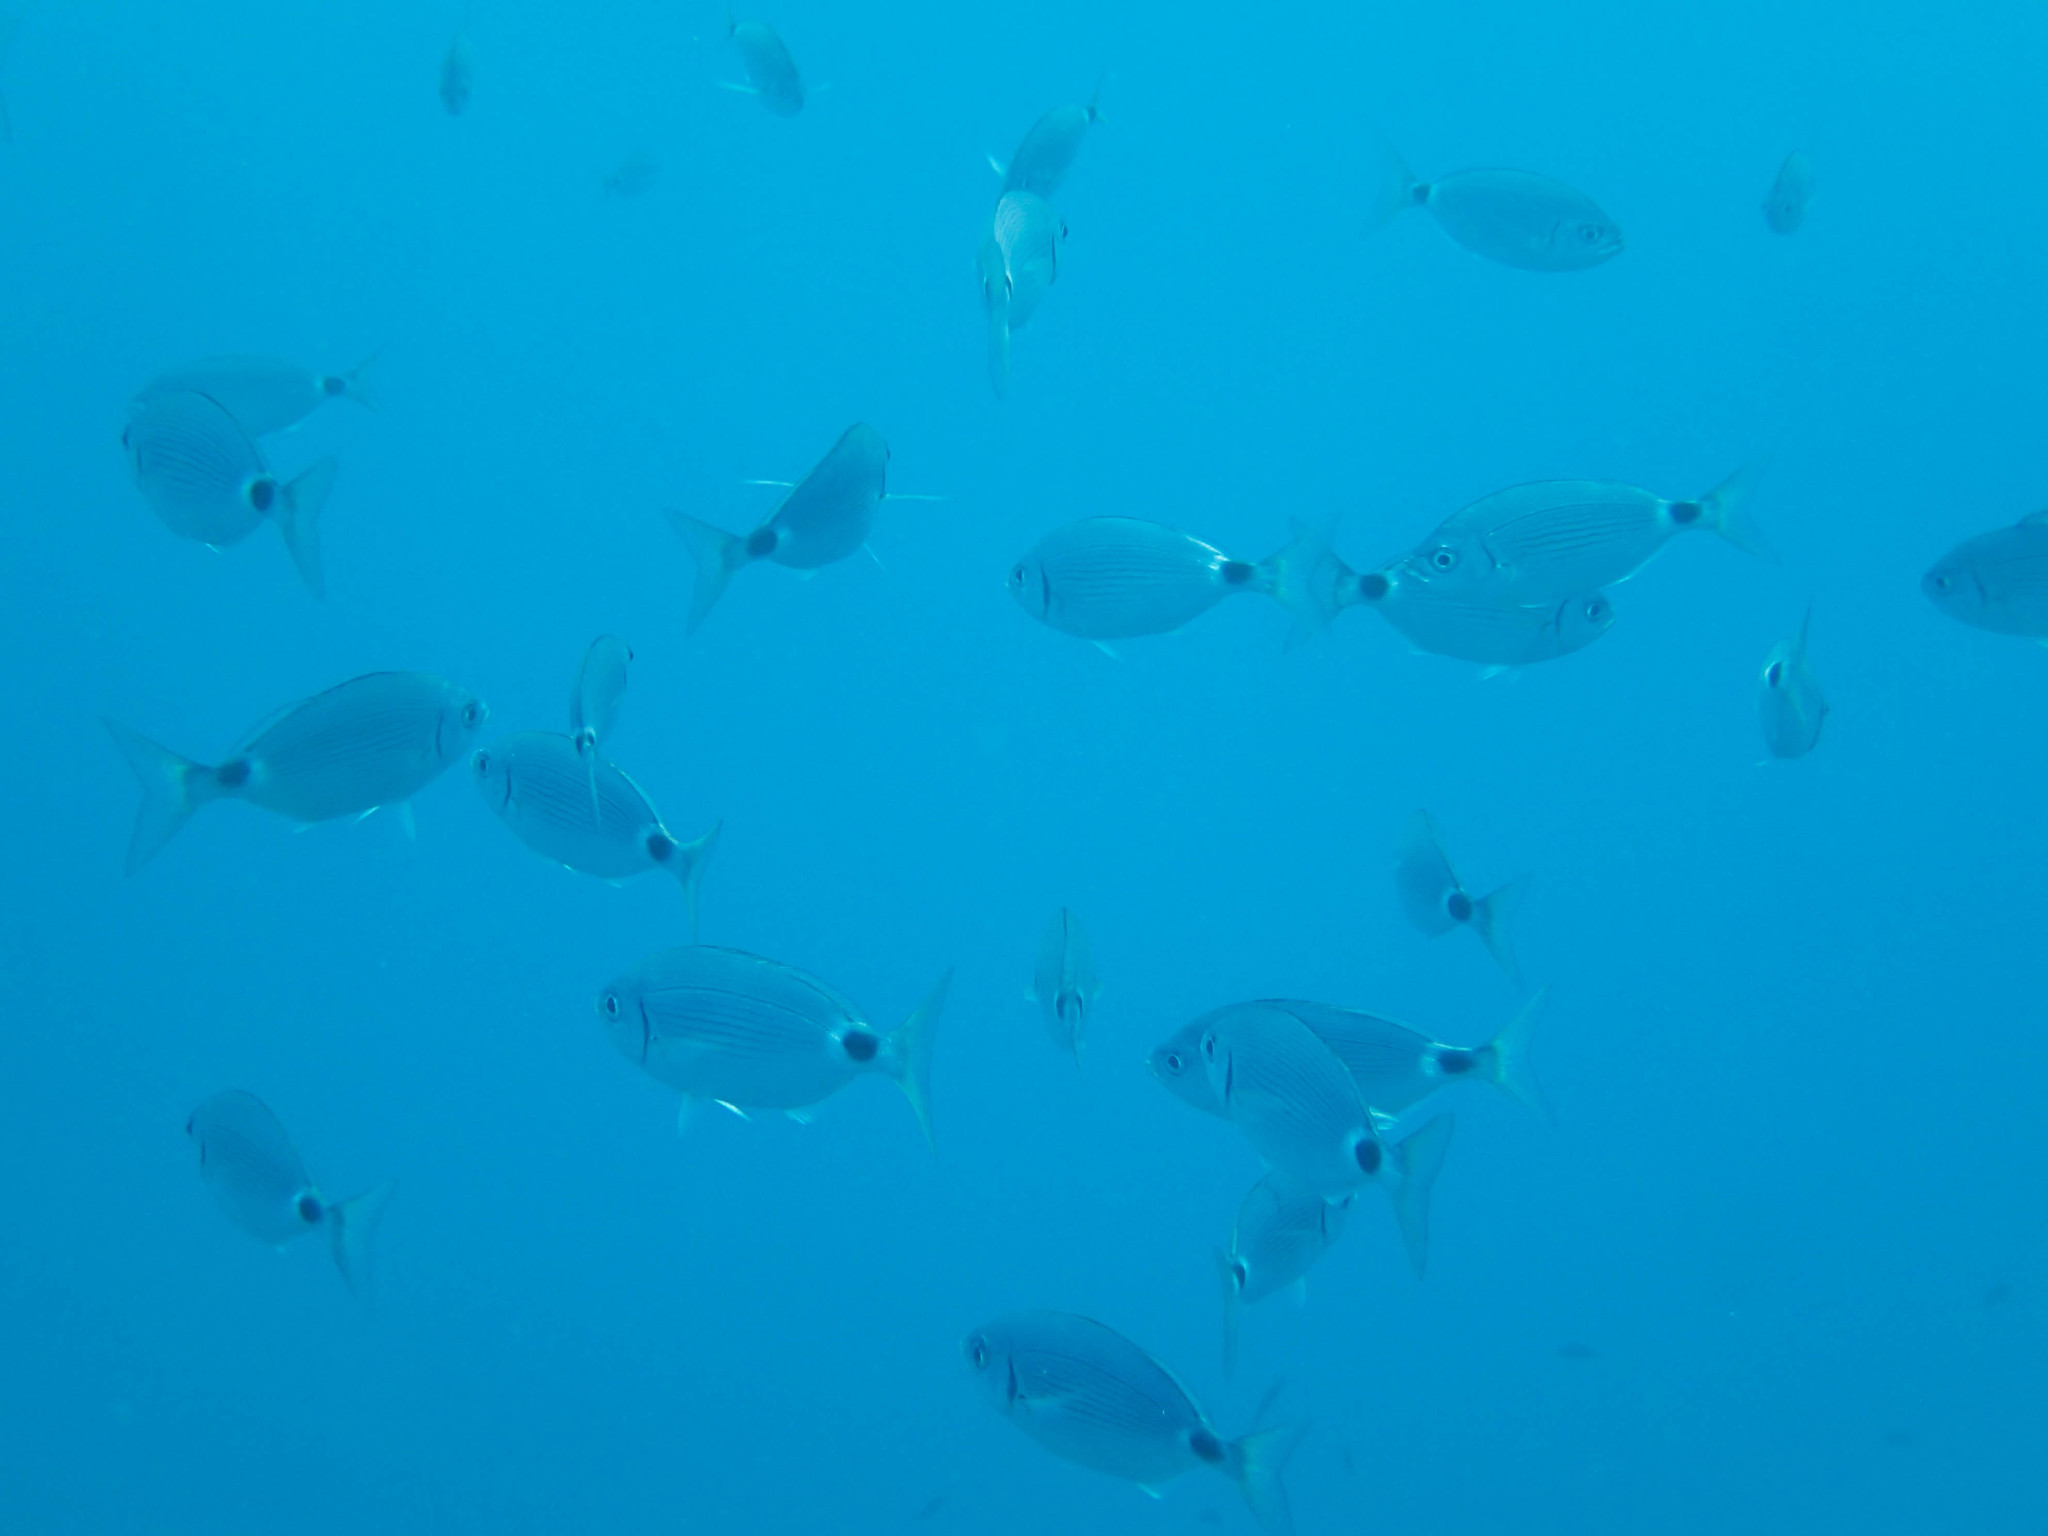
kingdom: Animalia
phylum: Chordata
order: Perciformes
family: Sparidae
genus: Oblada
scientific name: Oblada melanura
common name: Saddled seabream
